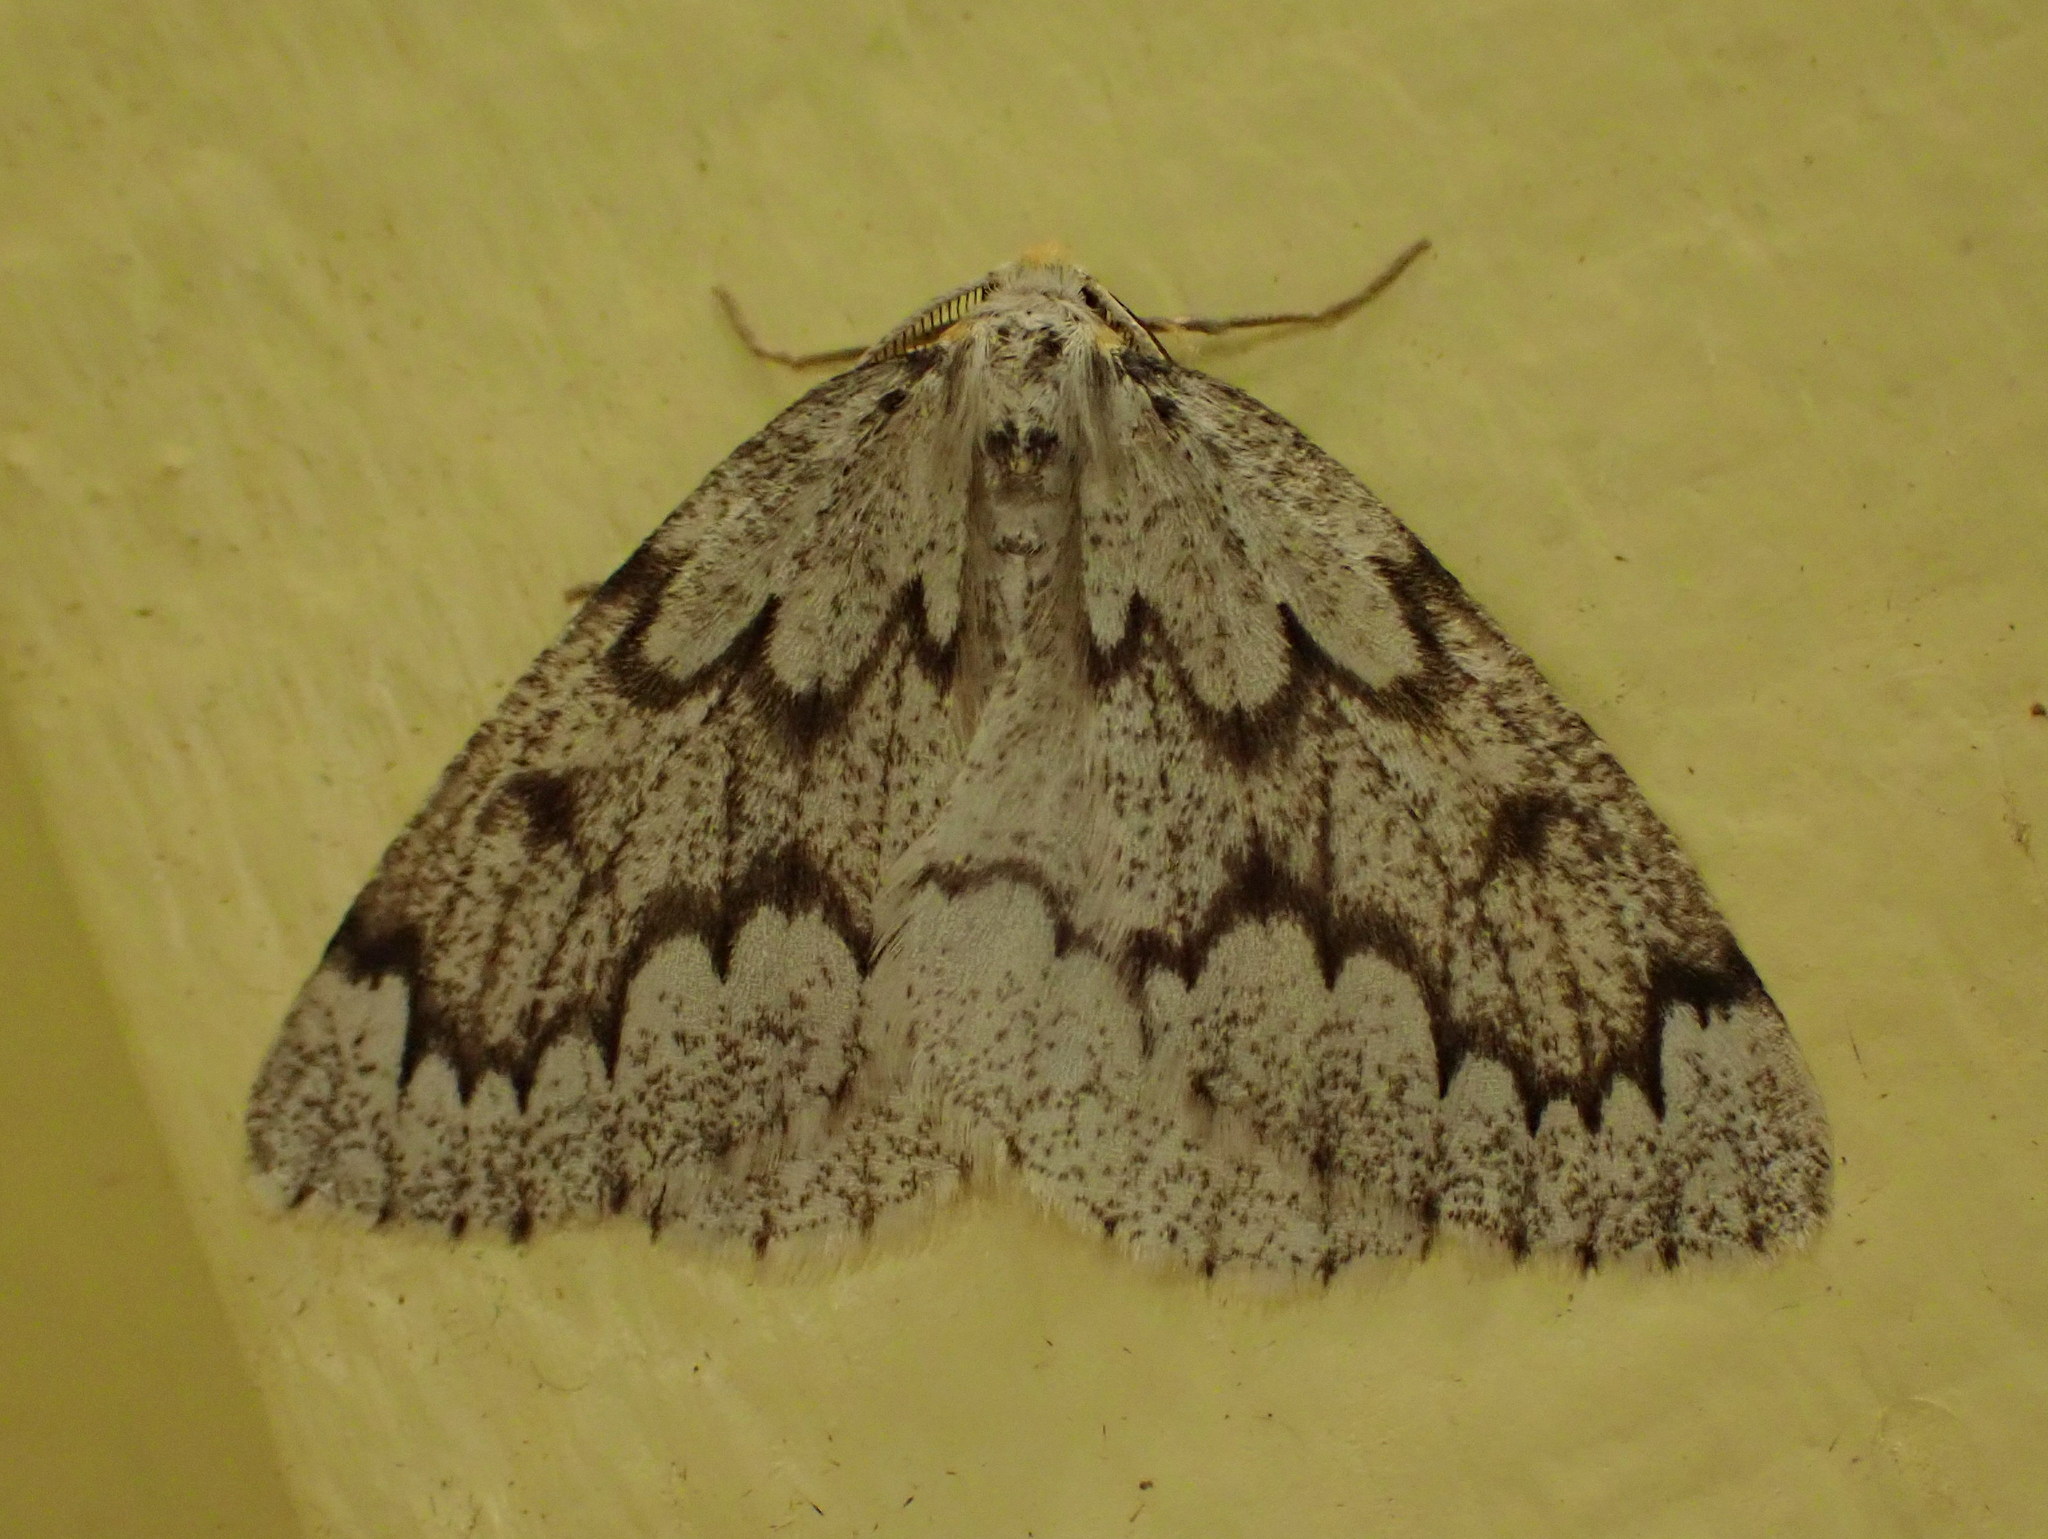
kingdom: Animalia
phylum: Arthropoda
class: Insecta
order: Lepidoptera
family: Geometridae
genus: Nepytia
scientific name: Nepytia canosaria
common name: False hemlock looper
